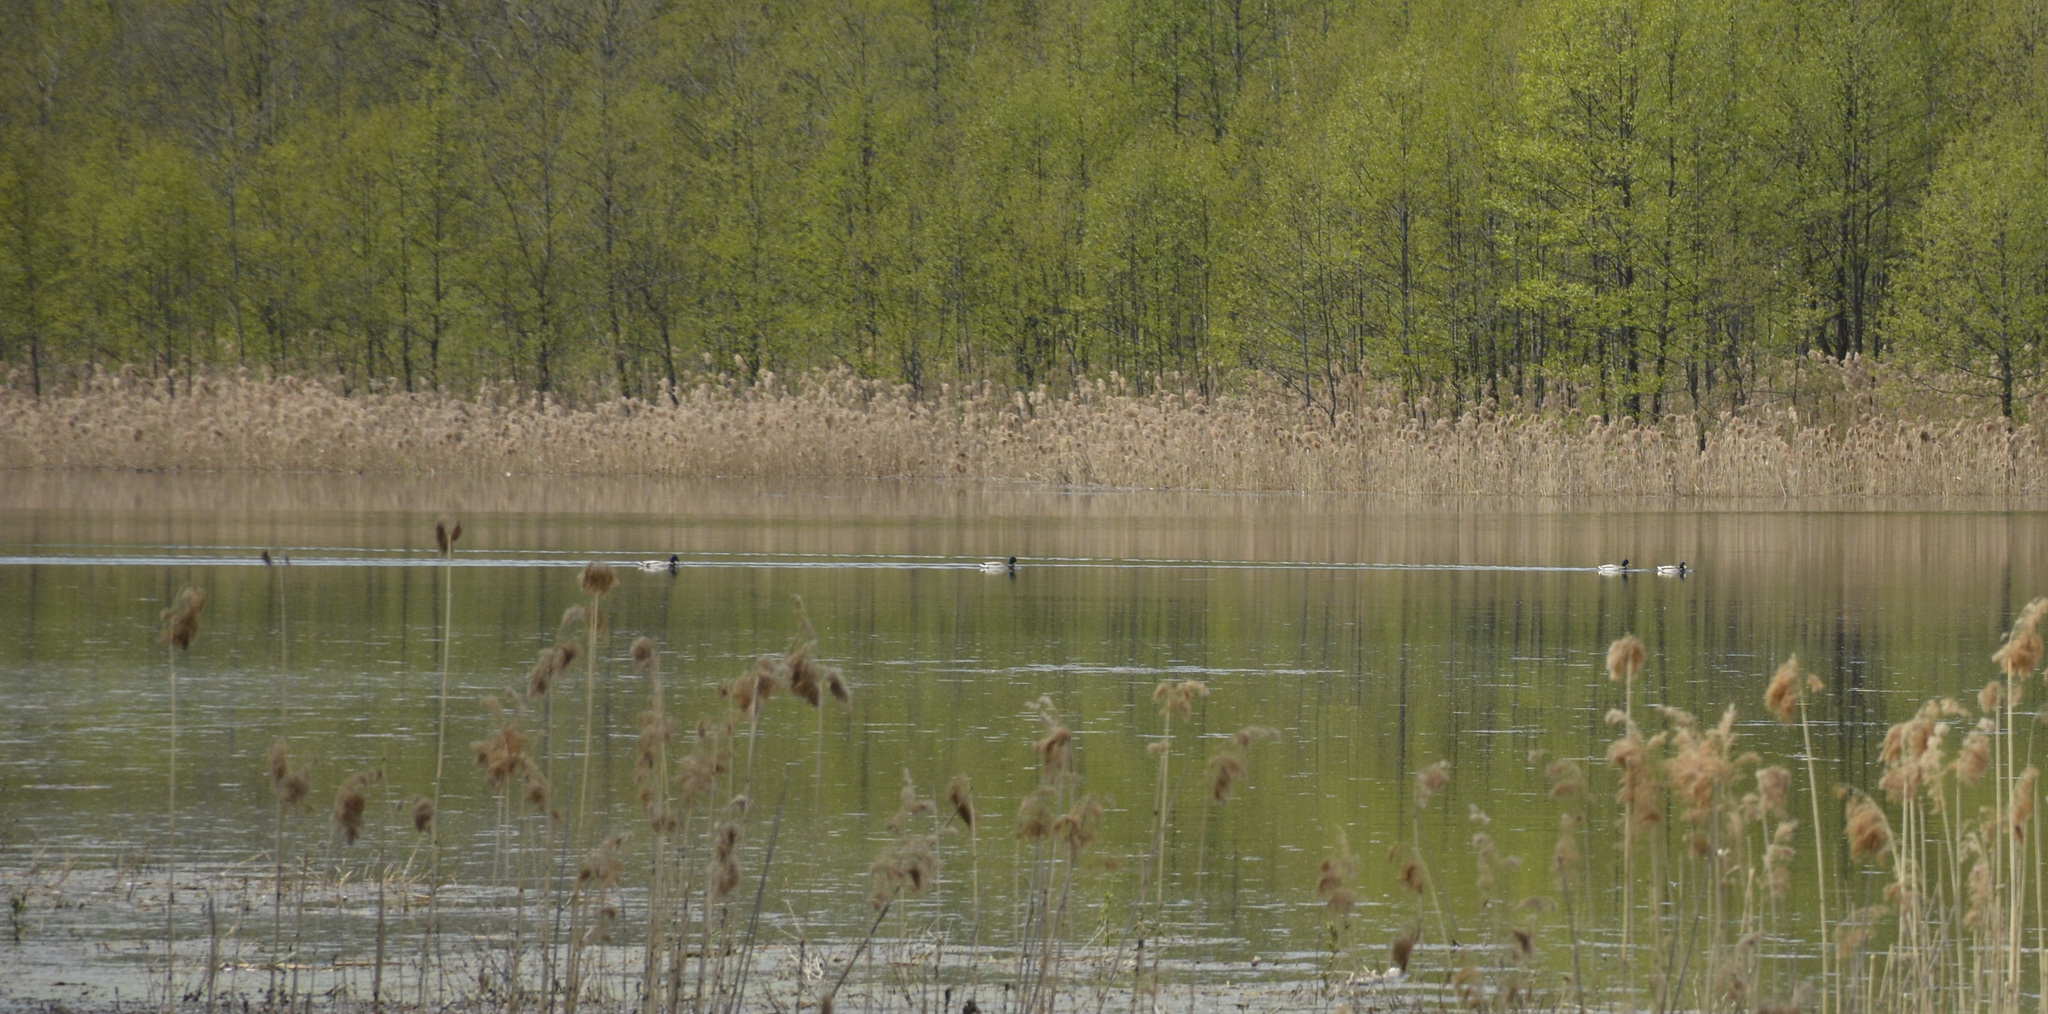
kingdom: Animalia
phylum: Chordata
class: Aves
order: Anseriformes
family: Anatidae
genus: Anas
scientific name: Anas platyrhynchos
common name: Mallard
